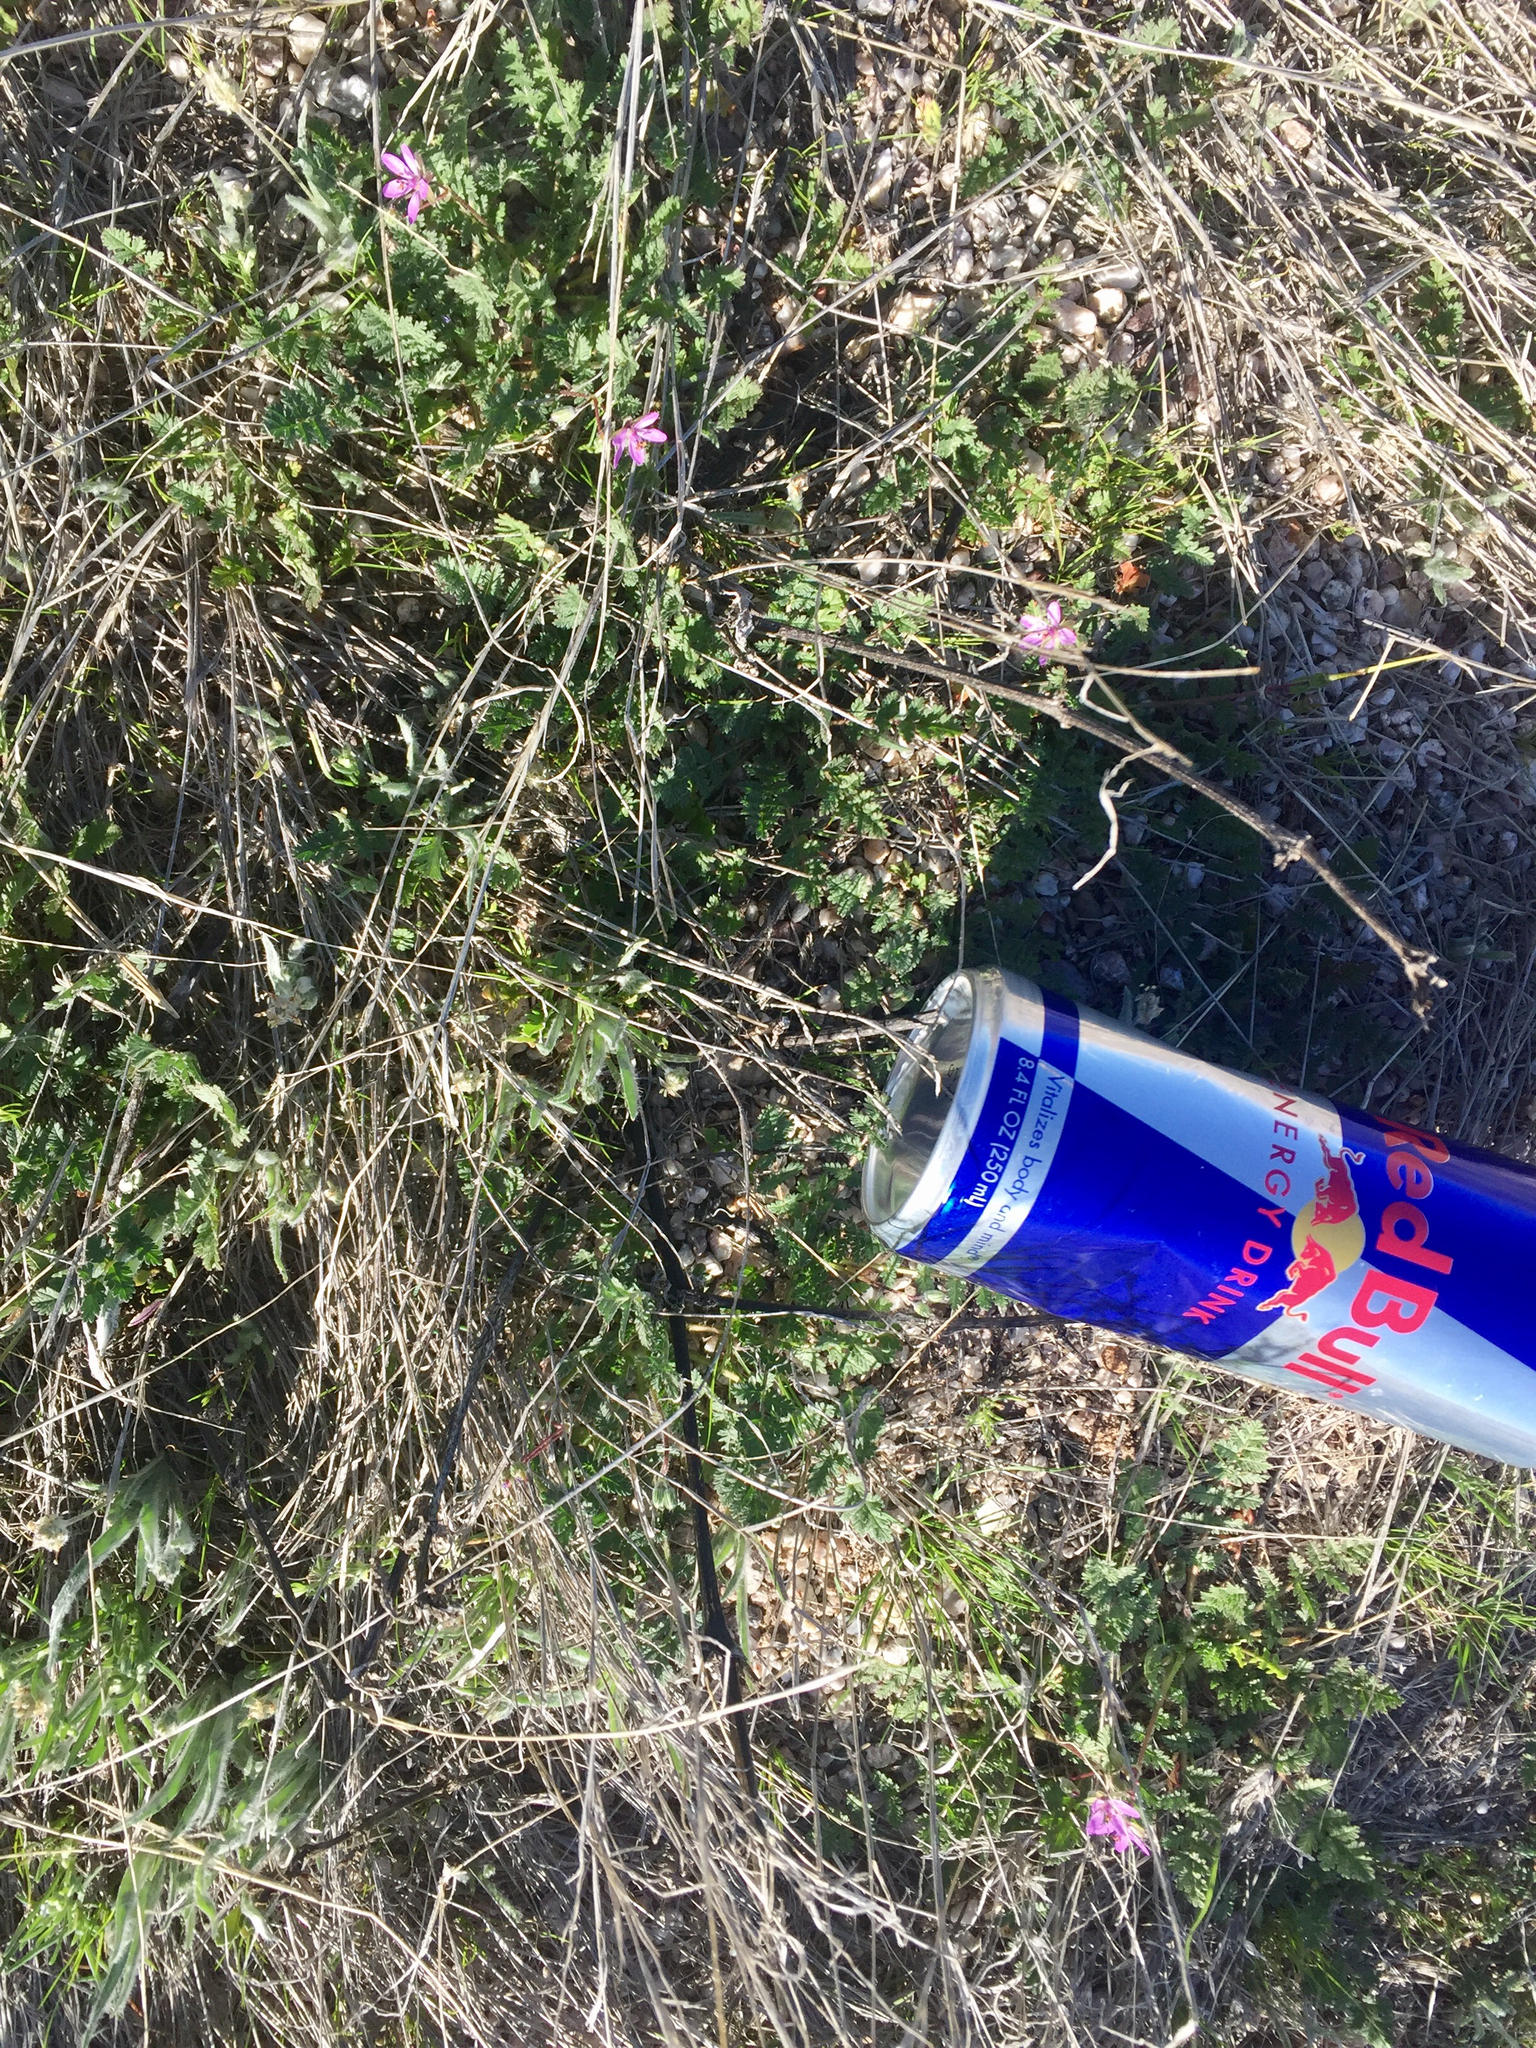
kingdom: Plantae
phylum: Tracheophyta
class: Magnoliopsida
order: Geraniales
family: Geraniaceae
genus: Erodium
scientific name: Erodium cicutarium
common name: Common stork's-bill
